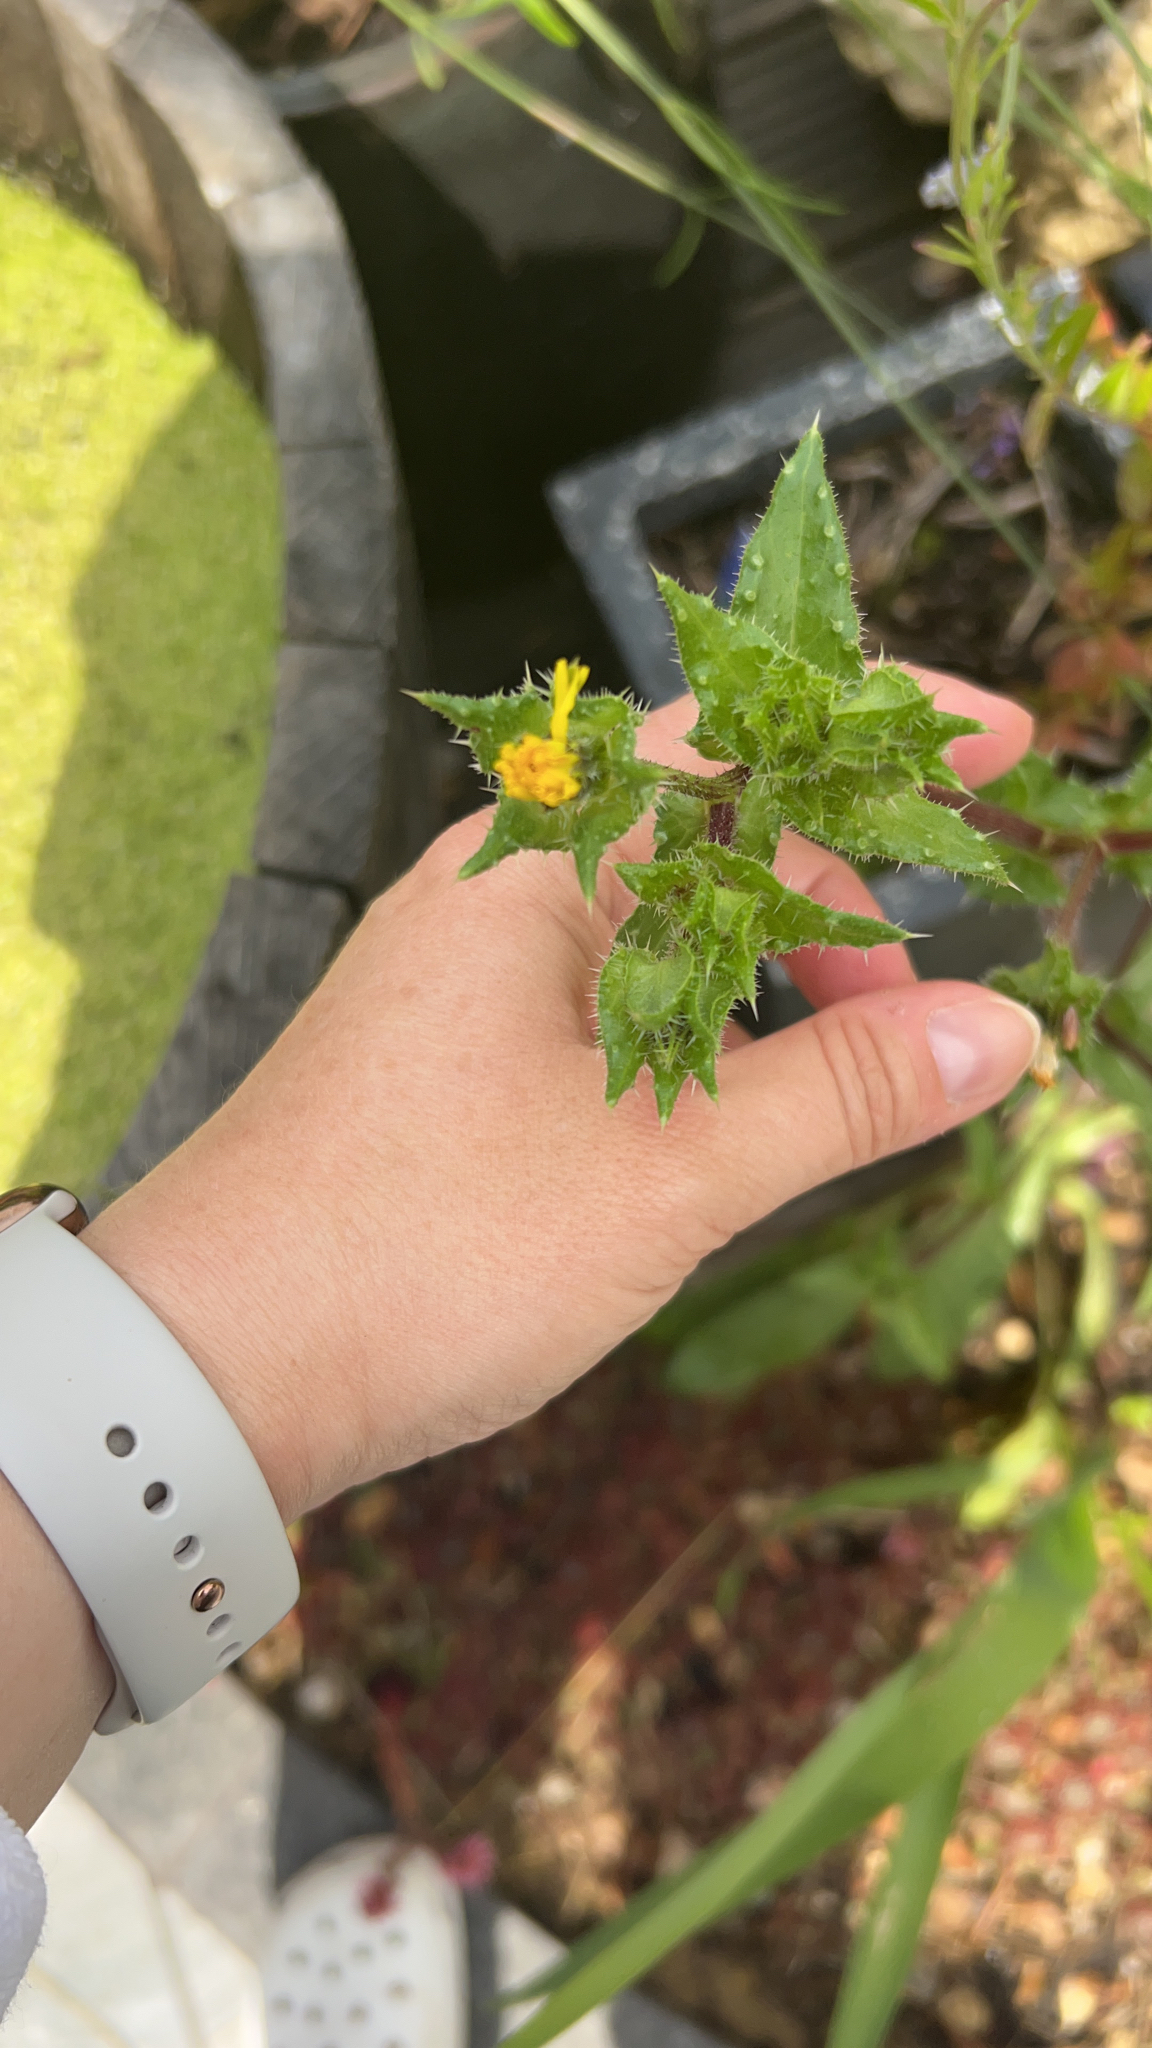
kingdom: Plantae
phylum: Tracheophyta
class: Magnoliopsida
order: Asterales
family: Asteraceae
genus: Helminthotheca
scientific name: Helminthotheca echioides
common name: Ox-tongue
